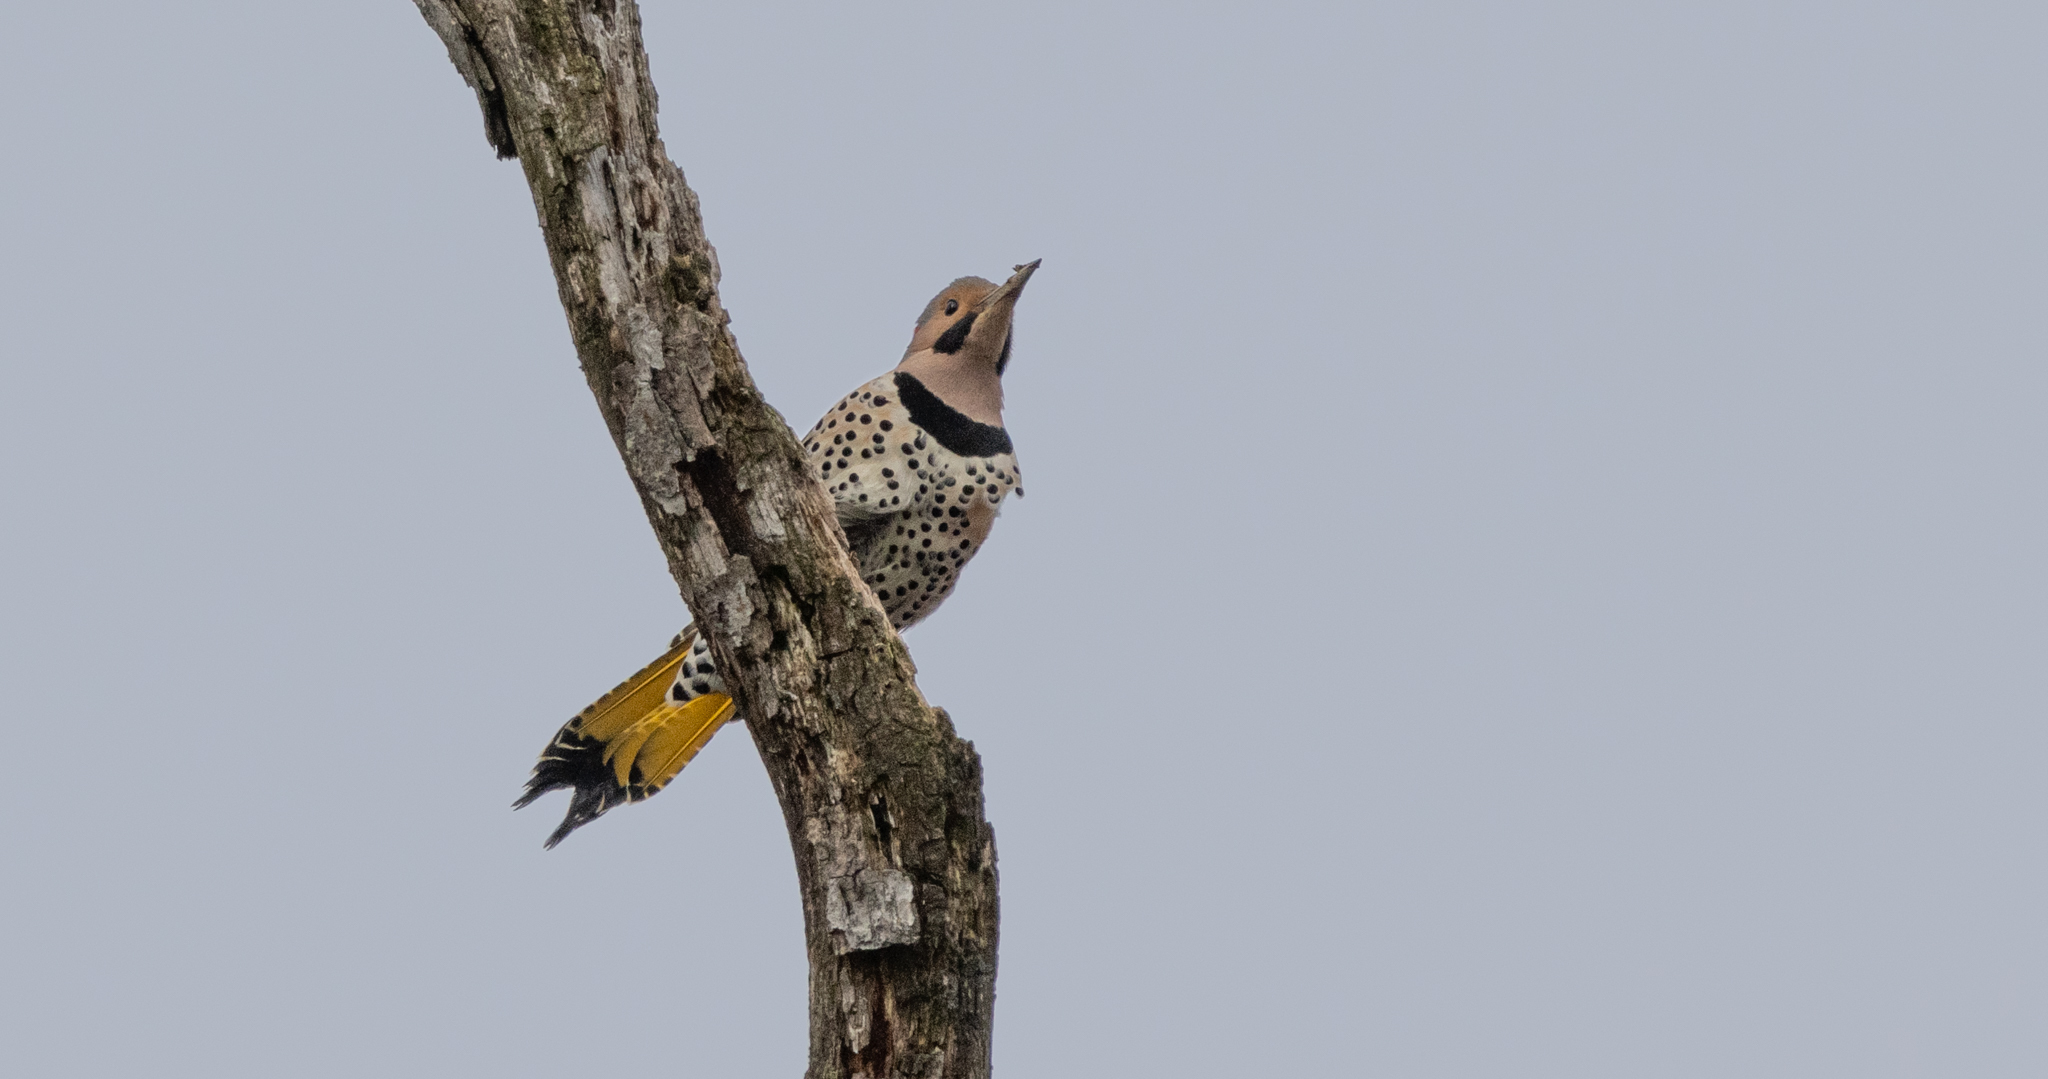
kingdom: Animalia
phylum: Chordata
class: Aves
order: Piciformes
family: Picidae
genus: Colaptes
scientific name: Colaptes auratus
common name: Northern flicker
